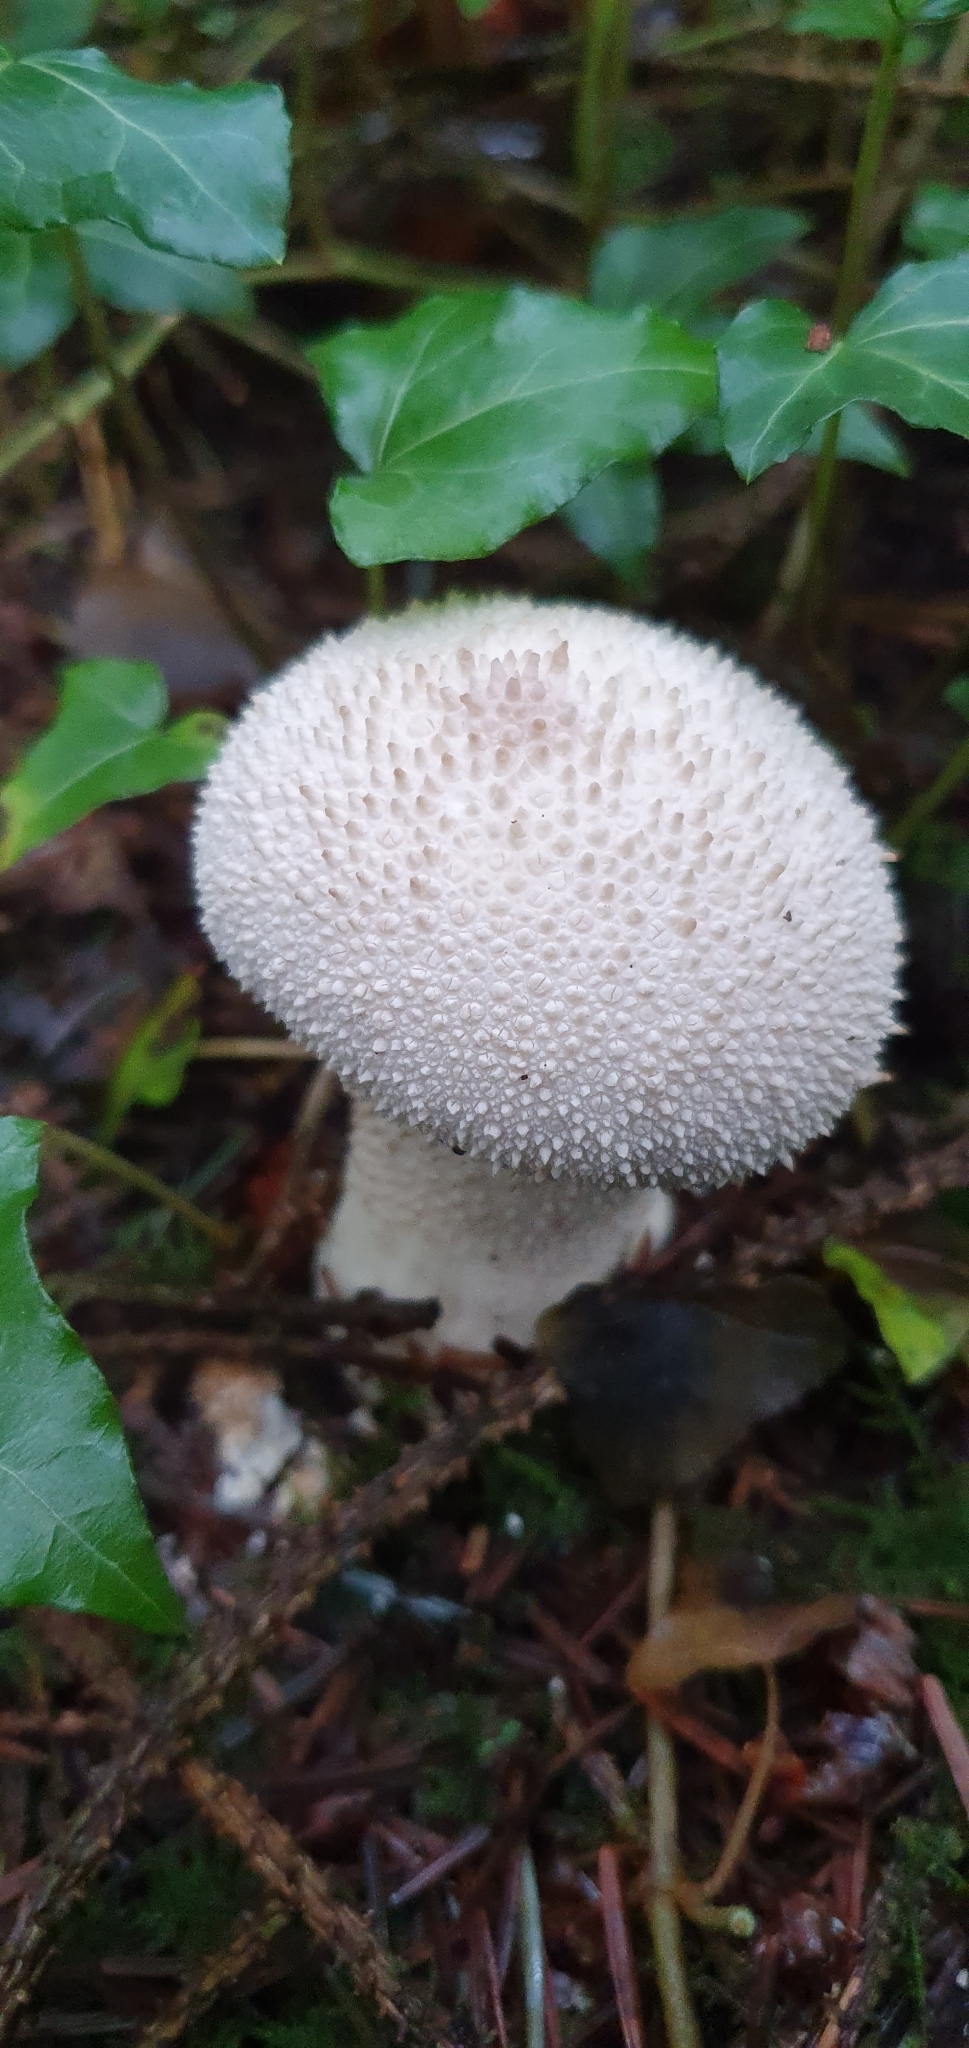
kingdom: Fungi
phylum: Basidiomycota
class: Agaricomycetes
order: Agaricales
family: Lycoperdaceae
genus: Lycoperdon
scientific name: Lycoperdon excipuliforme
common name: Pestle puffball
